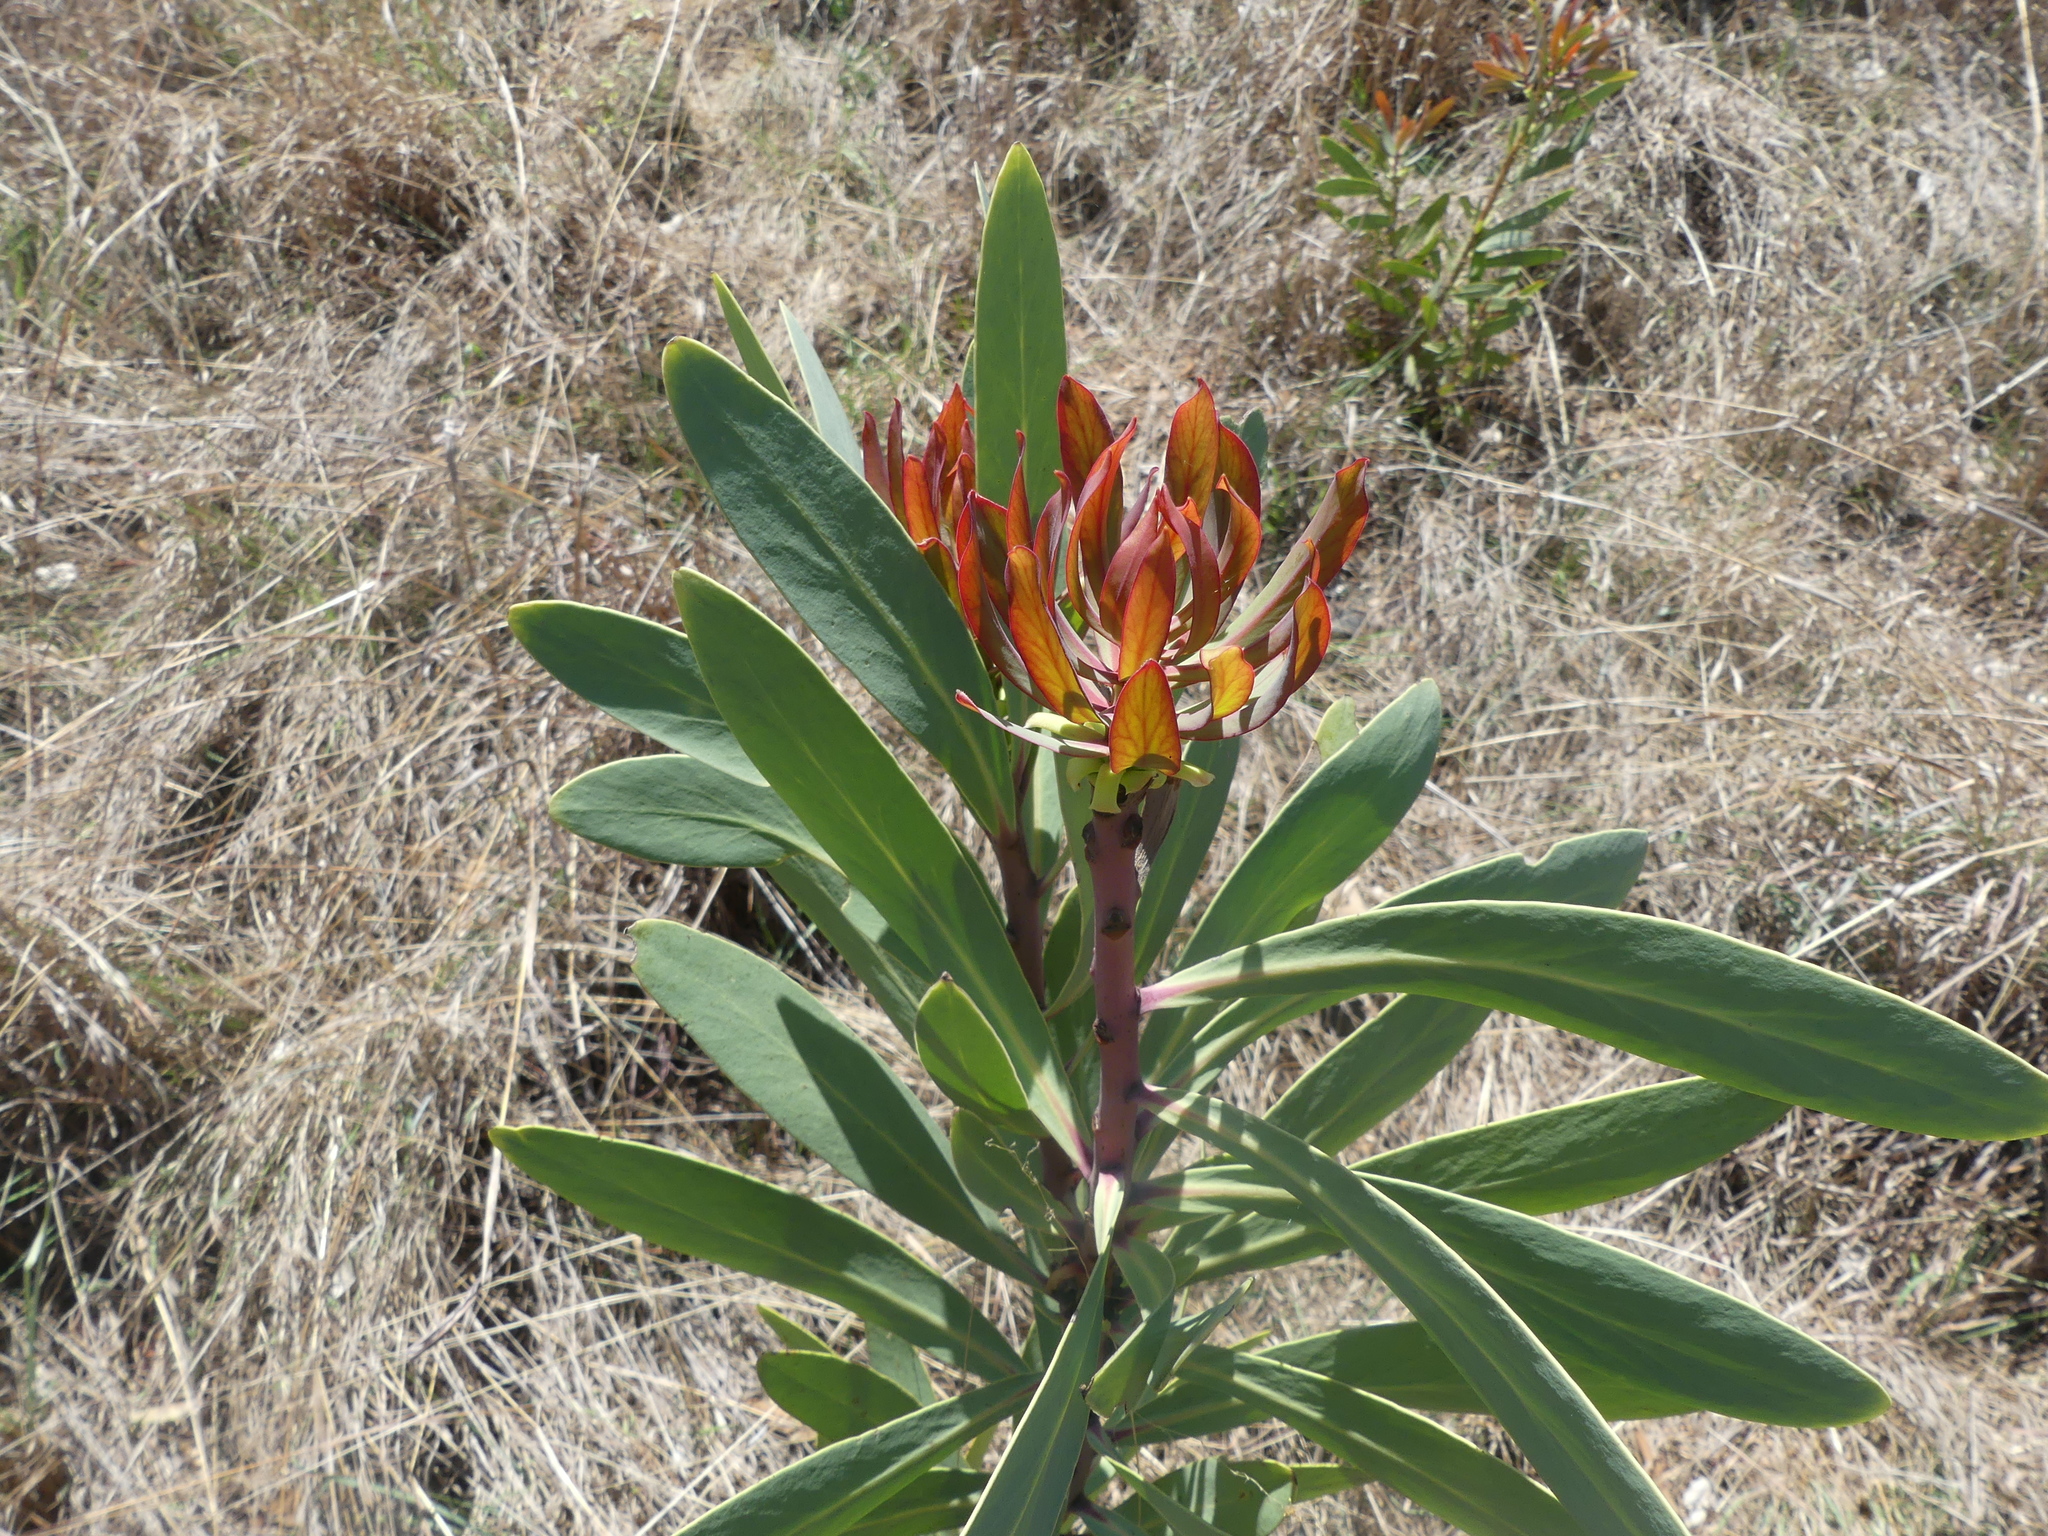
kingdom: Plantae
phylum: Tracheophyta
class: Magnoliopsida
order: Proteales
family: Proteaceae
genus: Protea
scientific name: Protea caffra
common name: Common sugarbush
